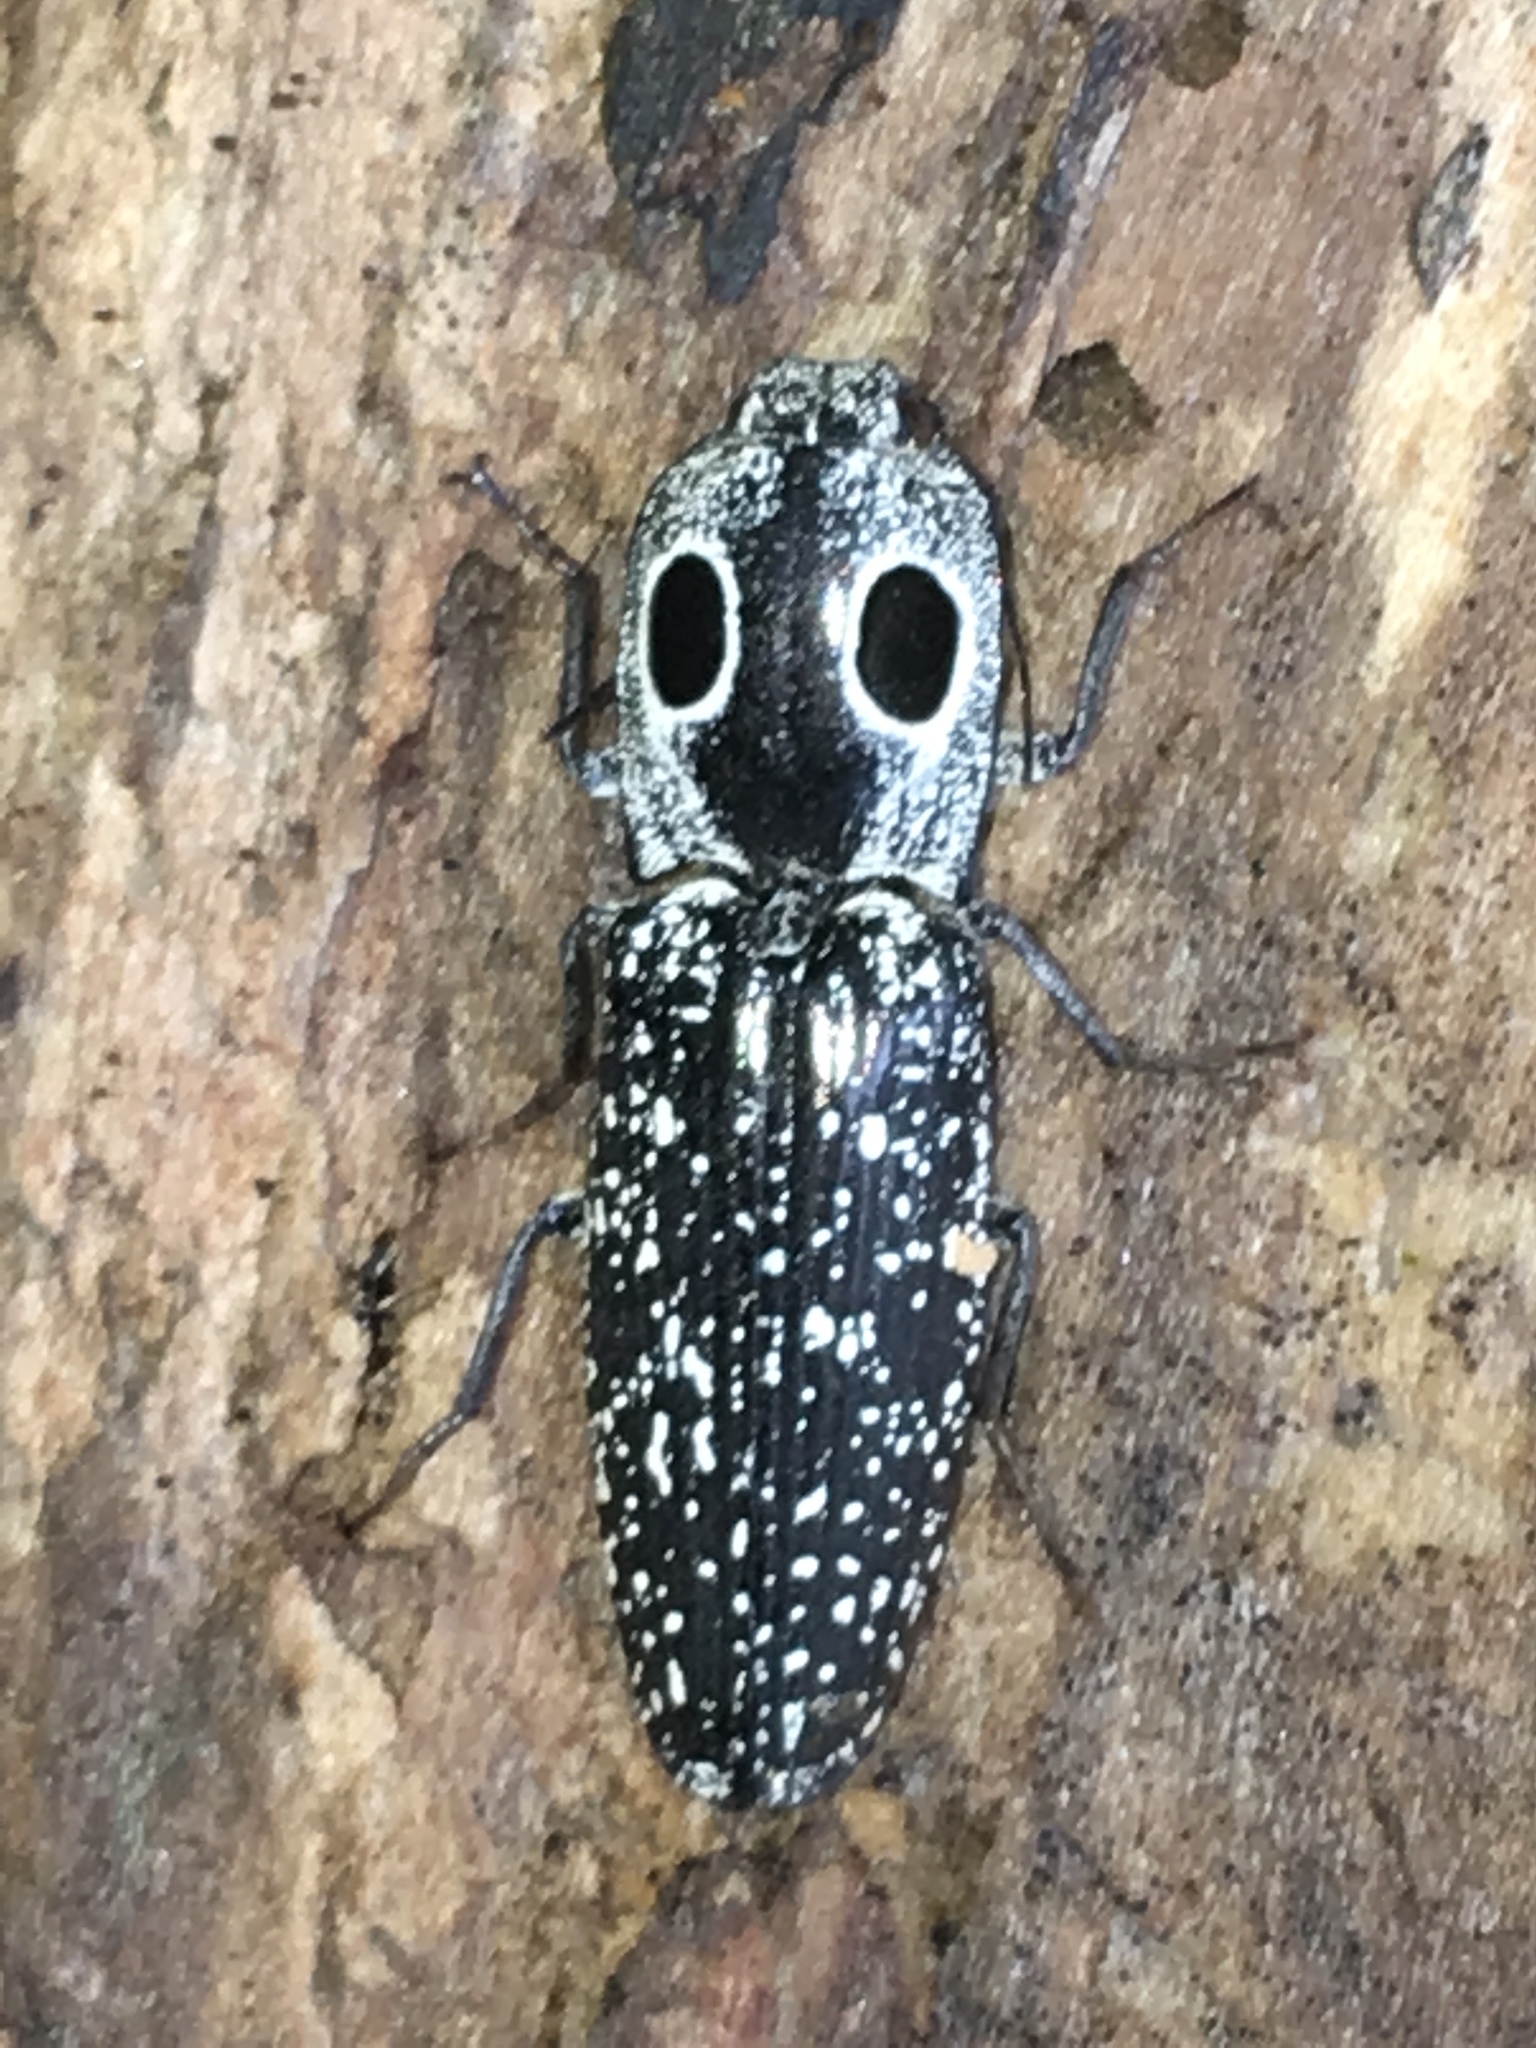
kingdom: Animalia
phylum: Arthropoda
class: Insecta
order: Coleoptera
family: Elateridae
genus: Alaus
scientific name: Alaus oculatus
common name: Eastern eyed click beetle
